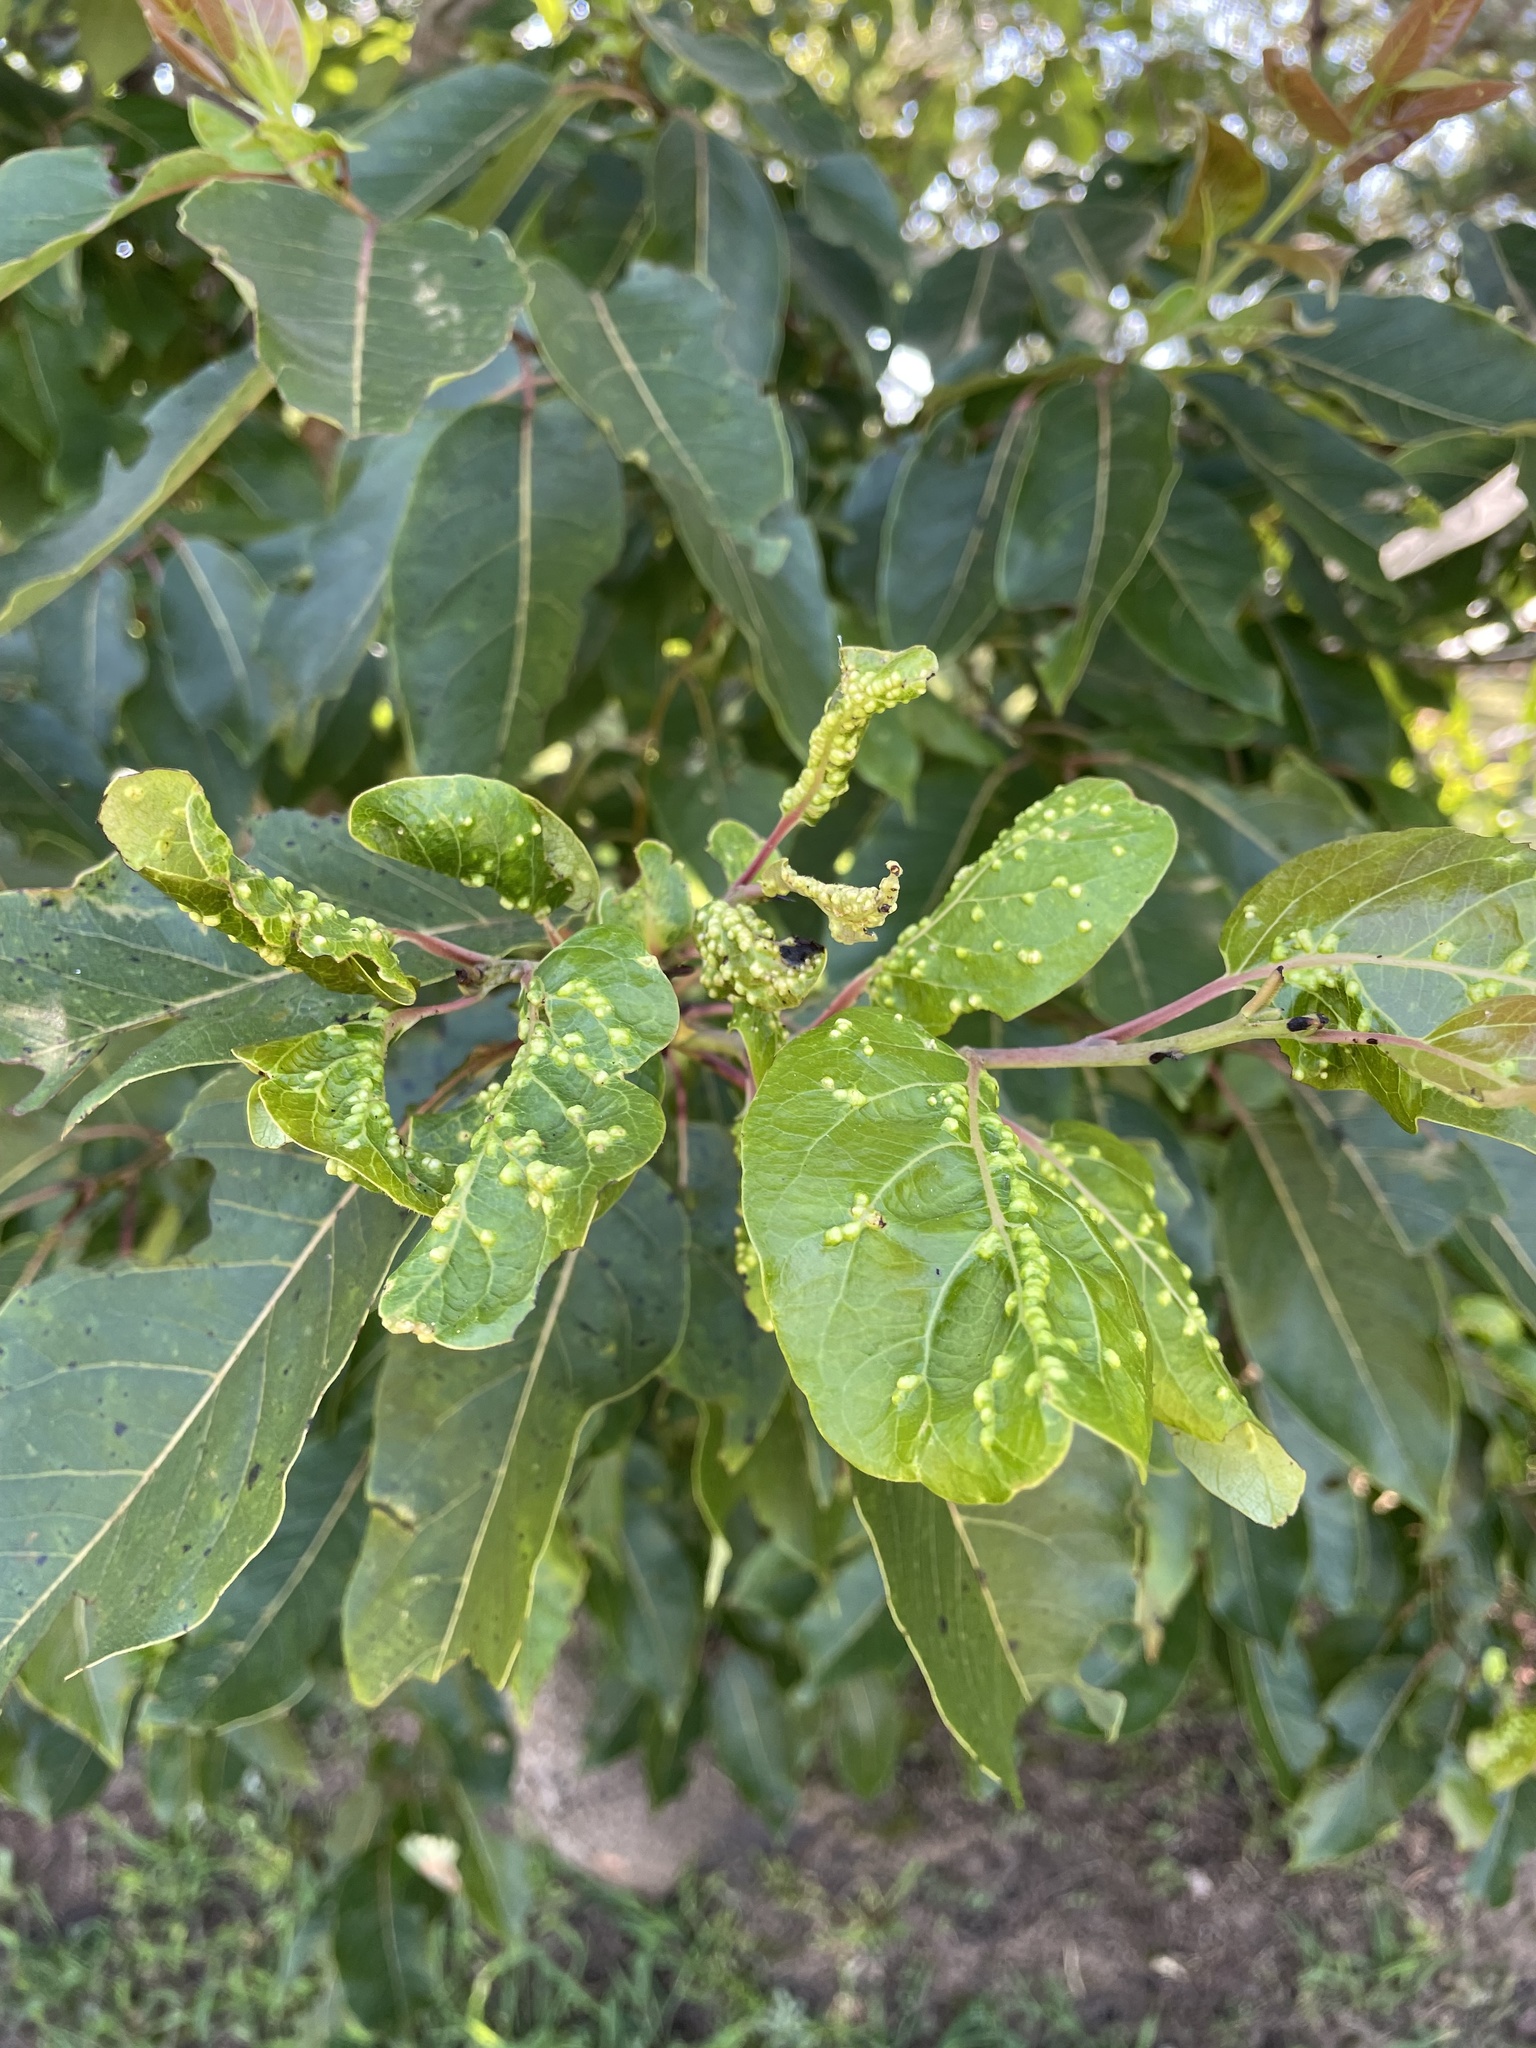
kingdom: Animalia
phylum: Arthropoda
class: Arachnida
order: Trombidiformes
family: Eriophyidae
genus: Aceria
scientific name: Aceria
